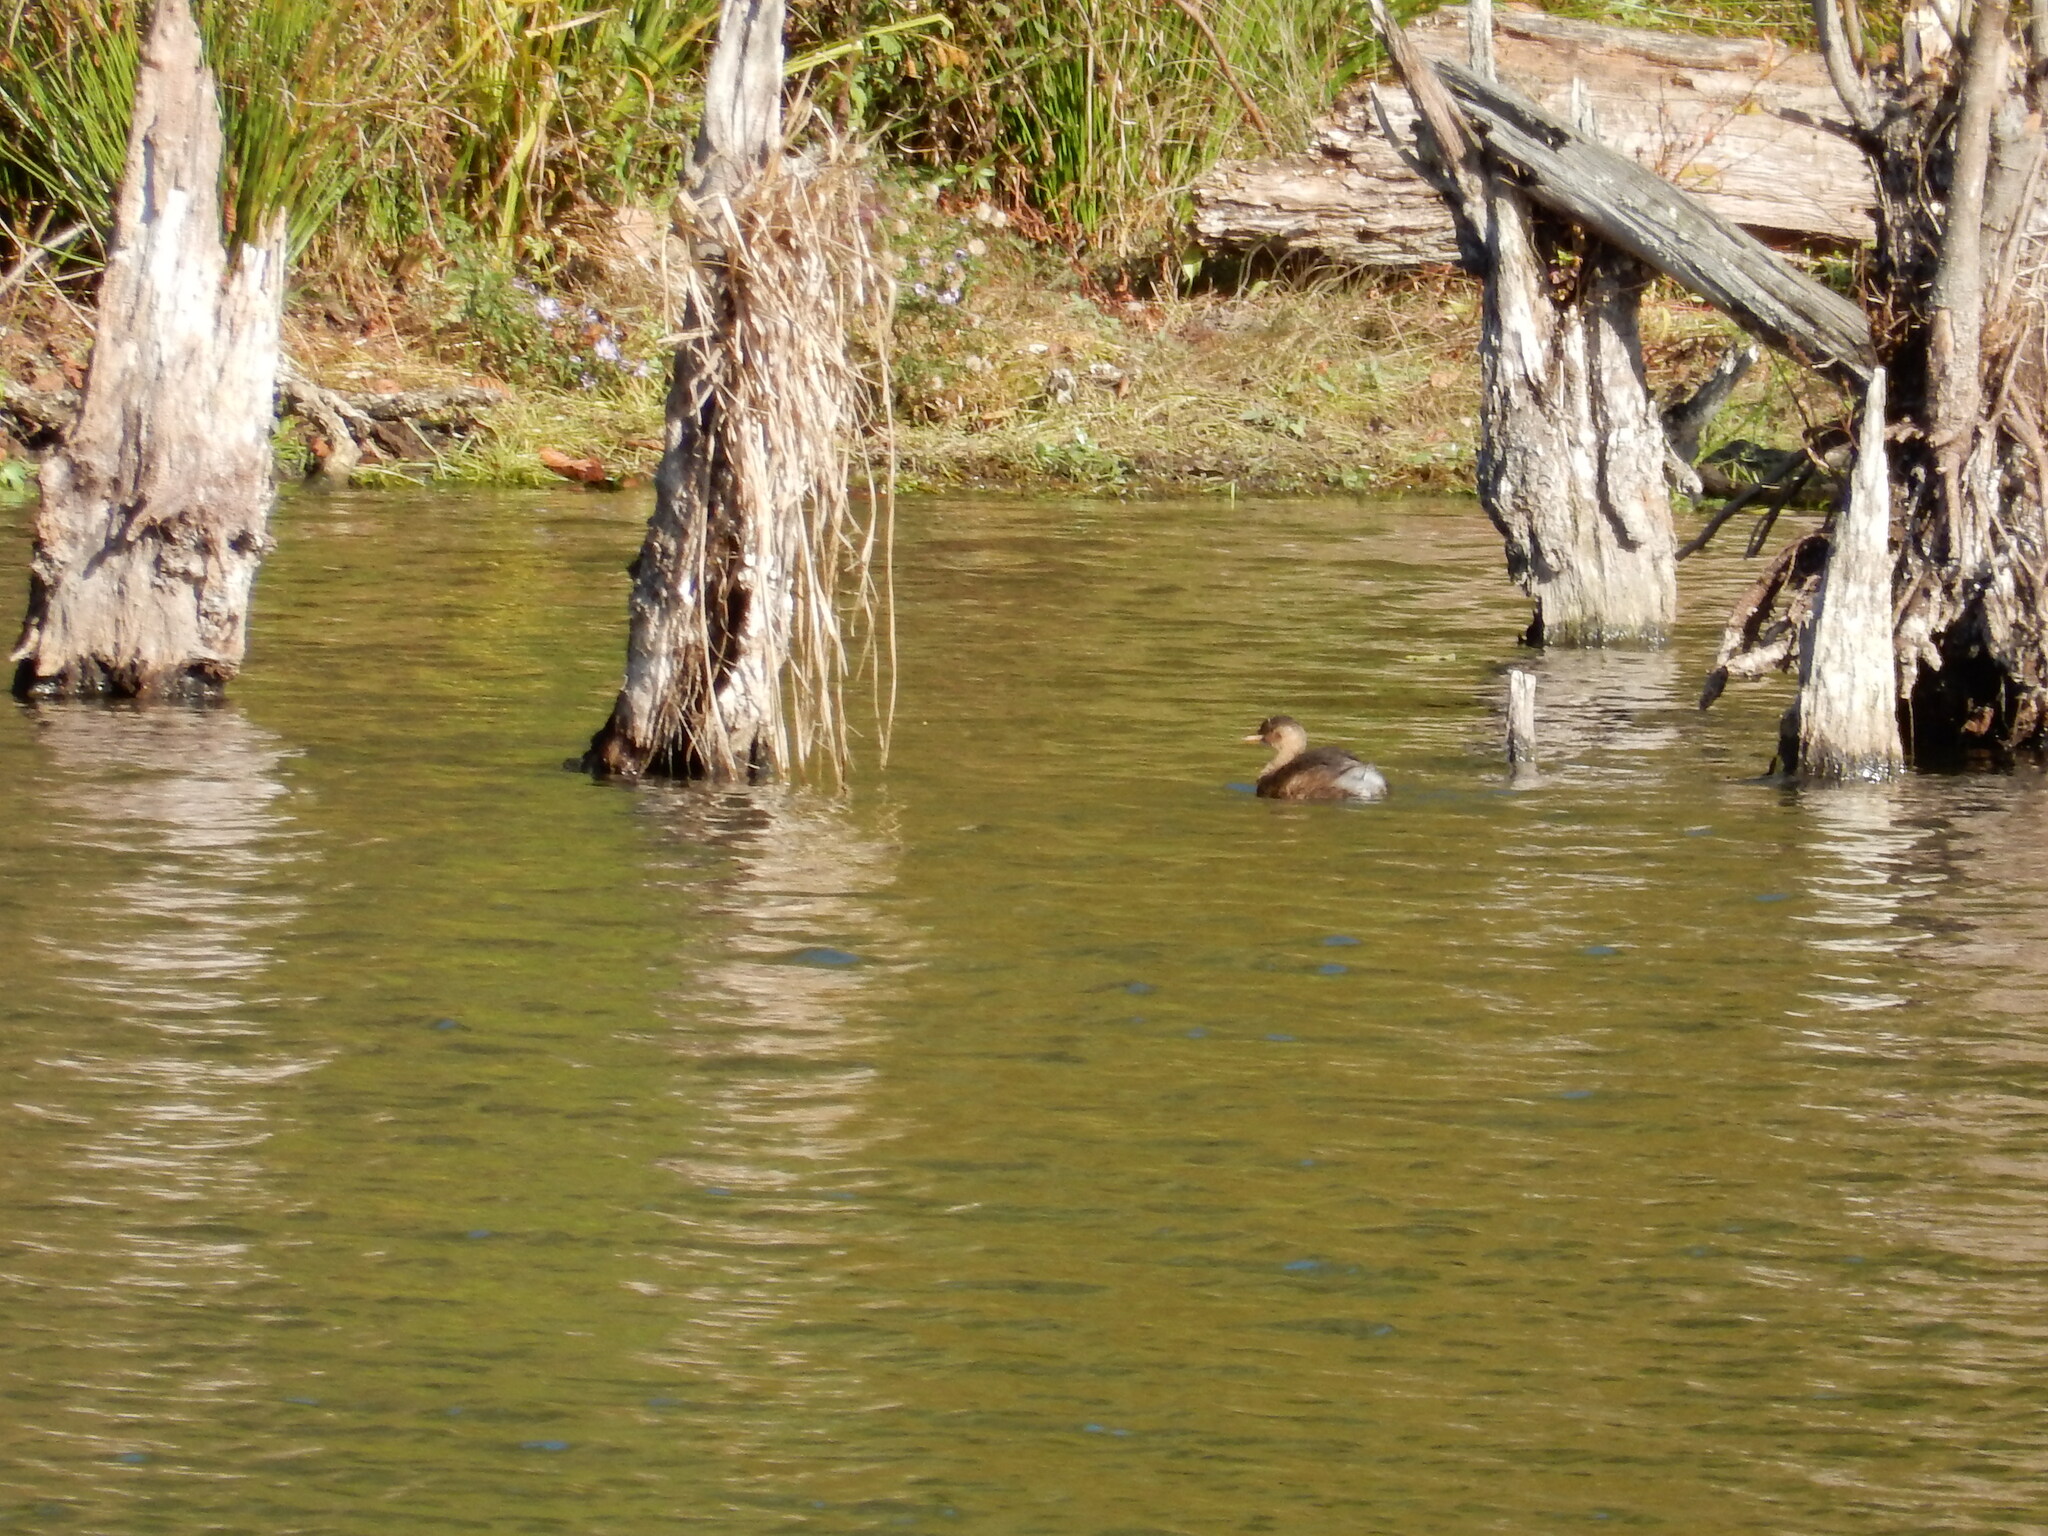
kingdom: Animalia
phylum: Chordata
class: Aves
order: Podicipediformes
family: Podicipedidae
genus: Tachybaptus
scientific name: Tachybaptus ruficollis
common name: Little grebe
